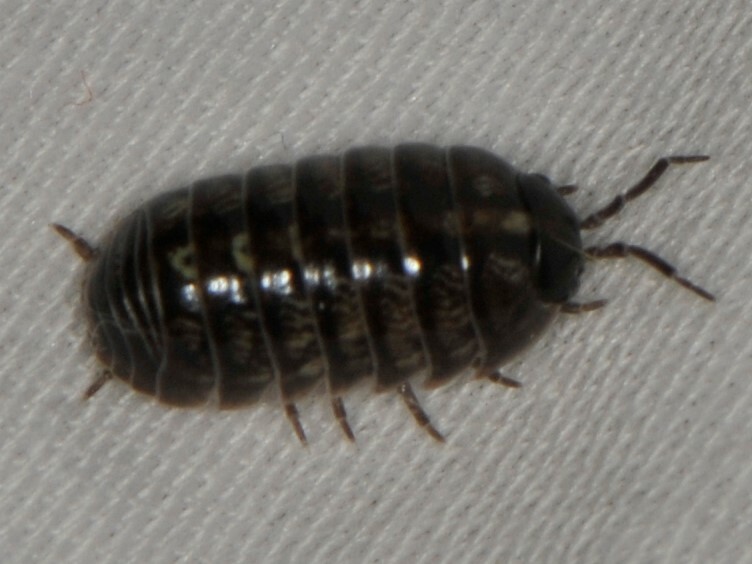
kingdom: Animalia
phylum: Arthropoda
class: Malacostraca
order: Isopoda
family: Armadillidiidae
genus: Armadillidium
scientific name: Armadillidium vulgare
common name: Common pill woodlouse
